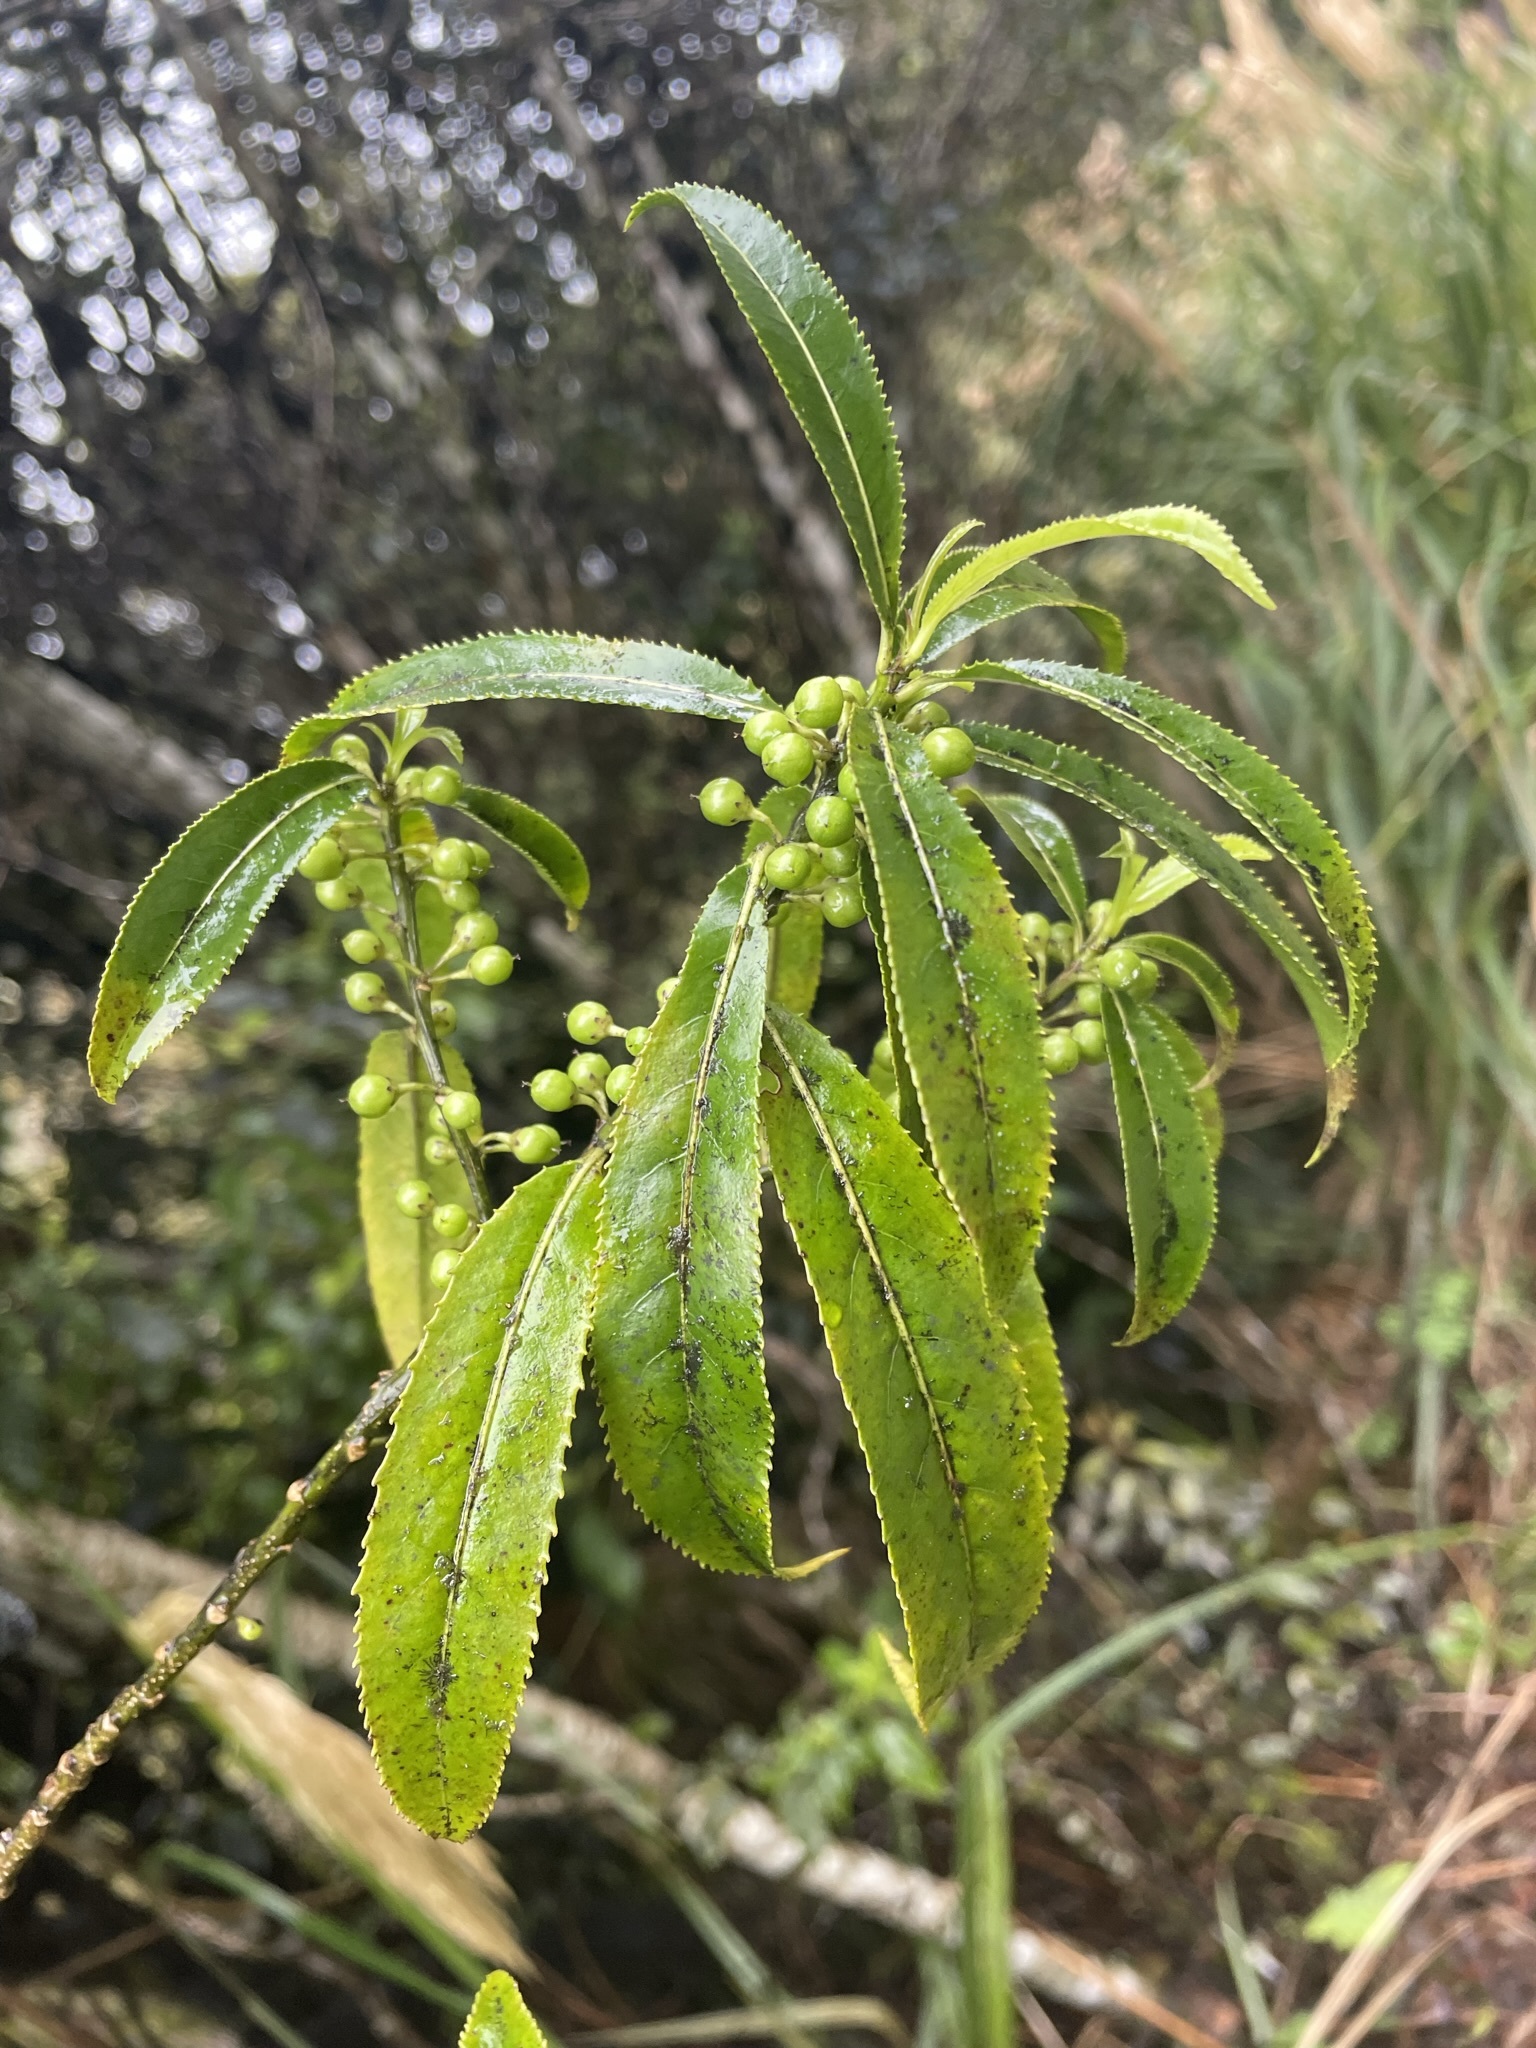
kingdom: Plantae
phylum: Tracheophyta
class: Magnoliopsida
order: Malpighiales
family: Violaceae
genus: Melicytus
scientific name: Melicytus lanceolatus
